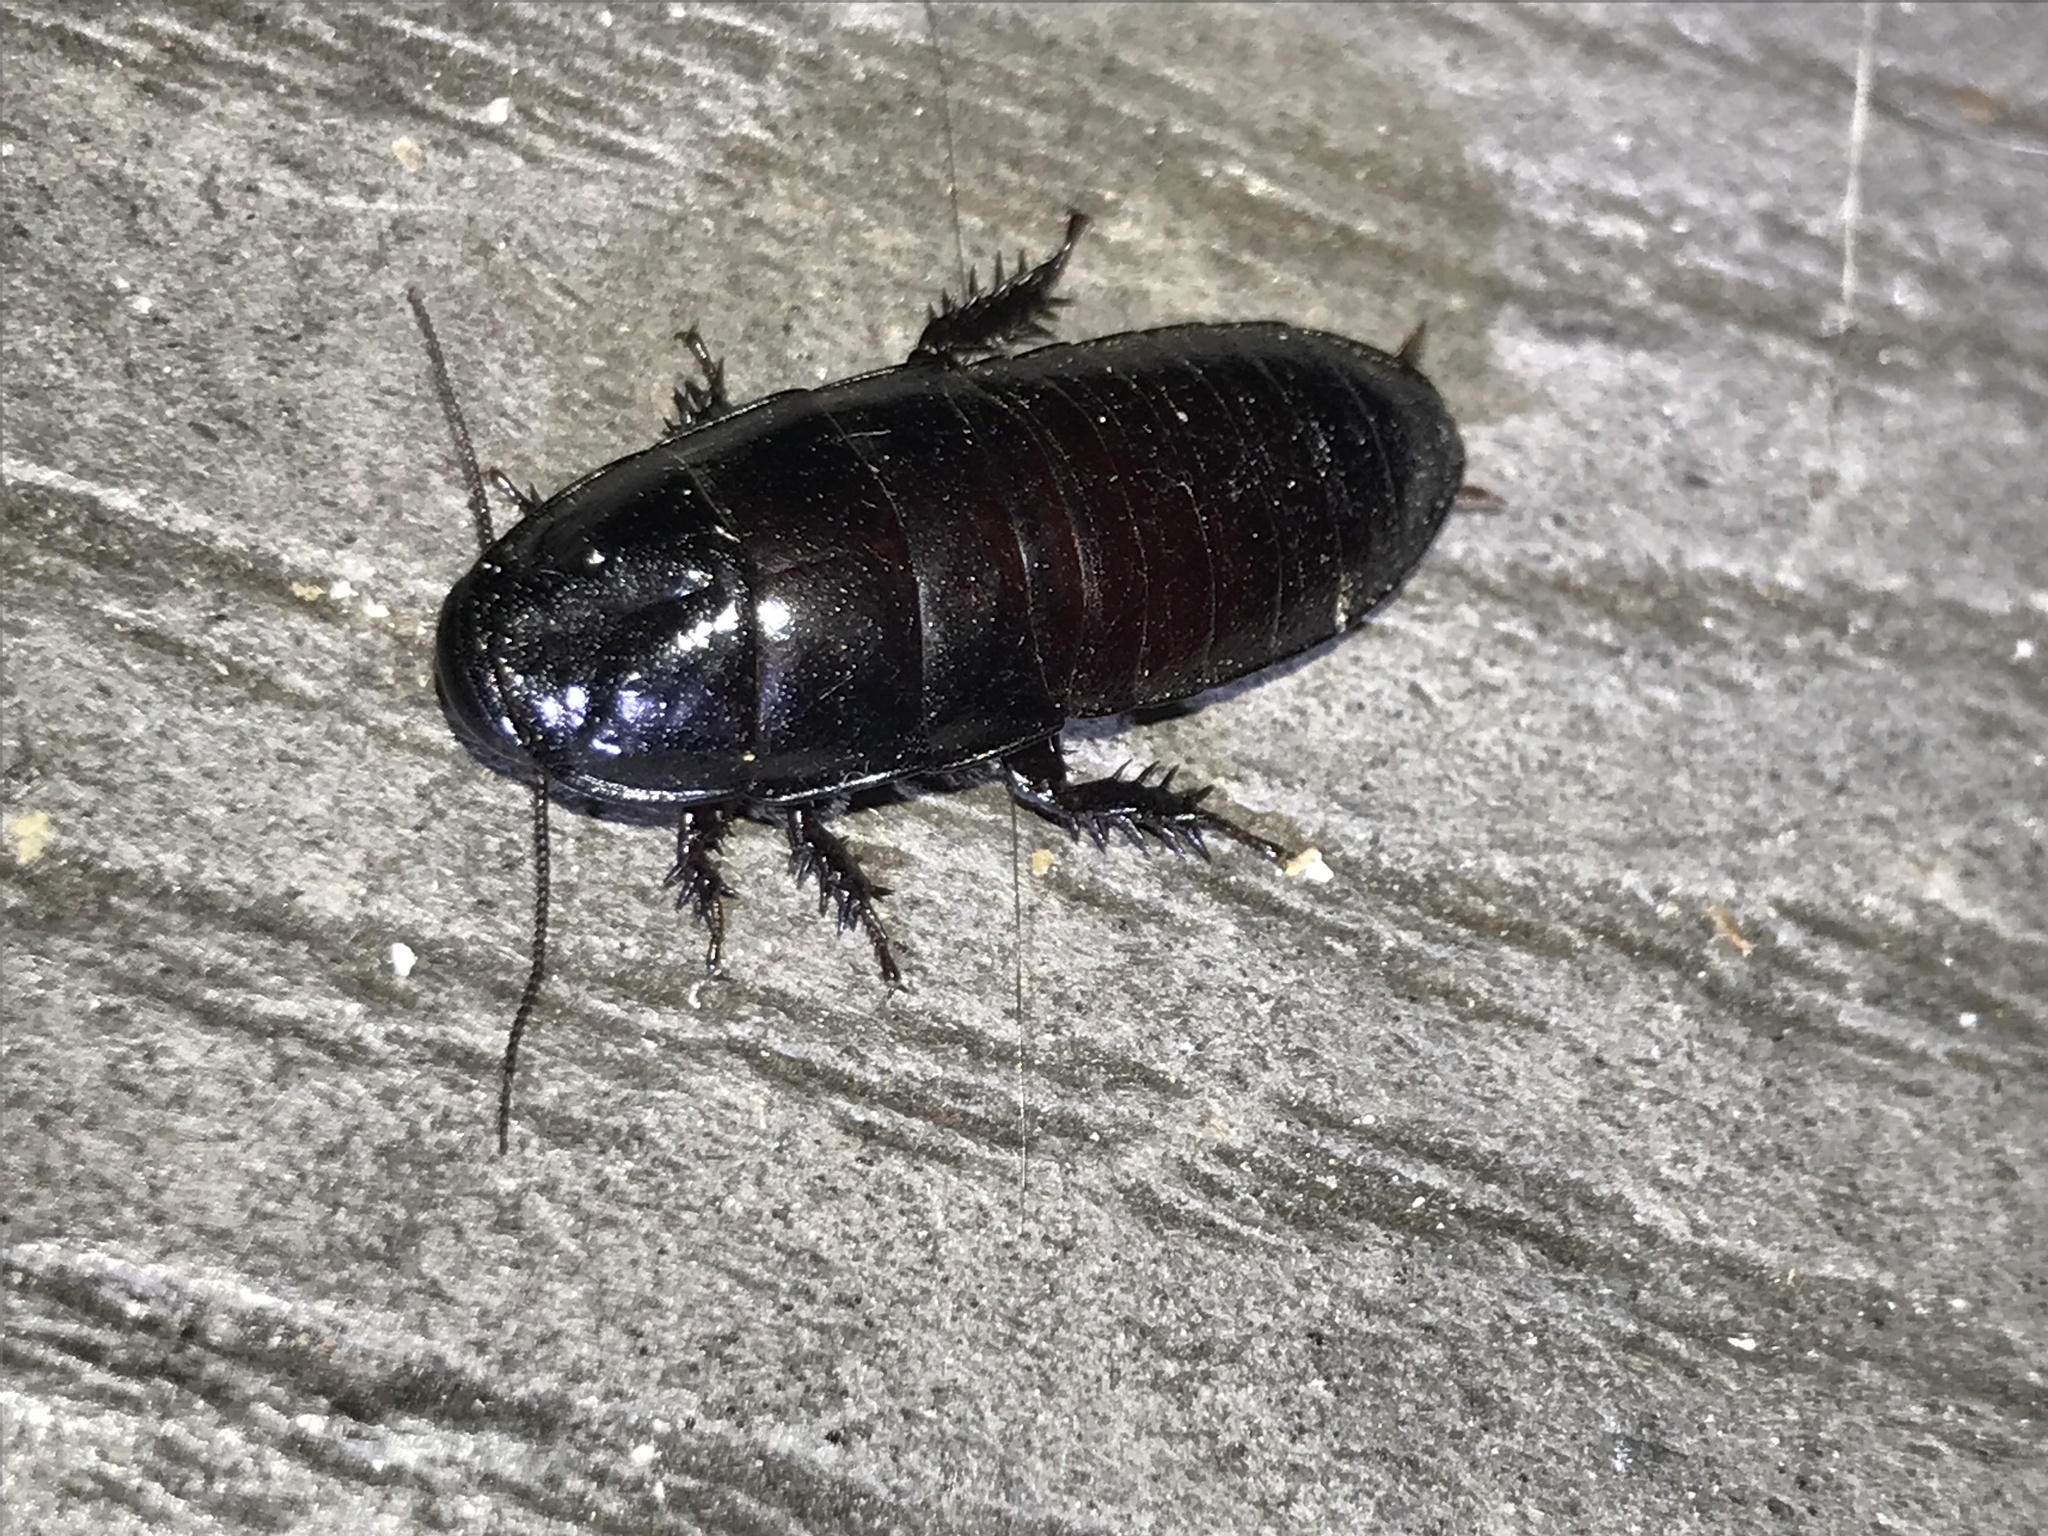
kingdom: Animalia
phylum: Arthropoda
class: Insecta
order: Blattodea
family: Cryptocercidae
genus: Cryptocercus
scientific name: Cryptocercus clevelandi
